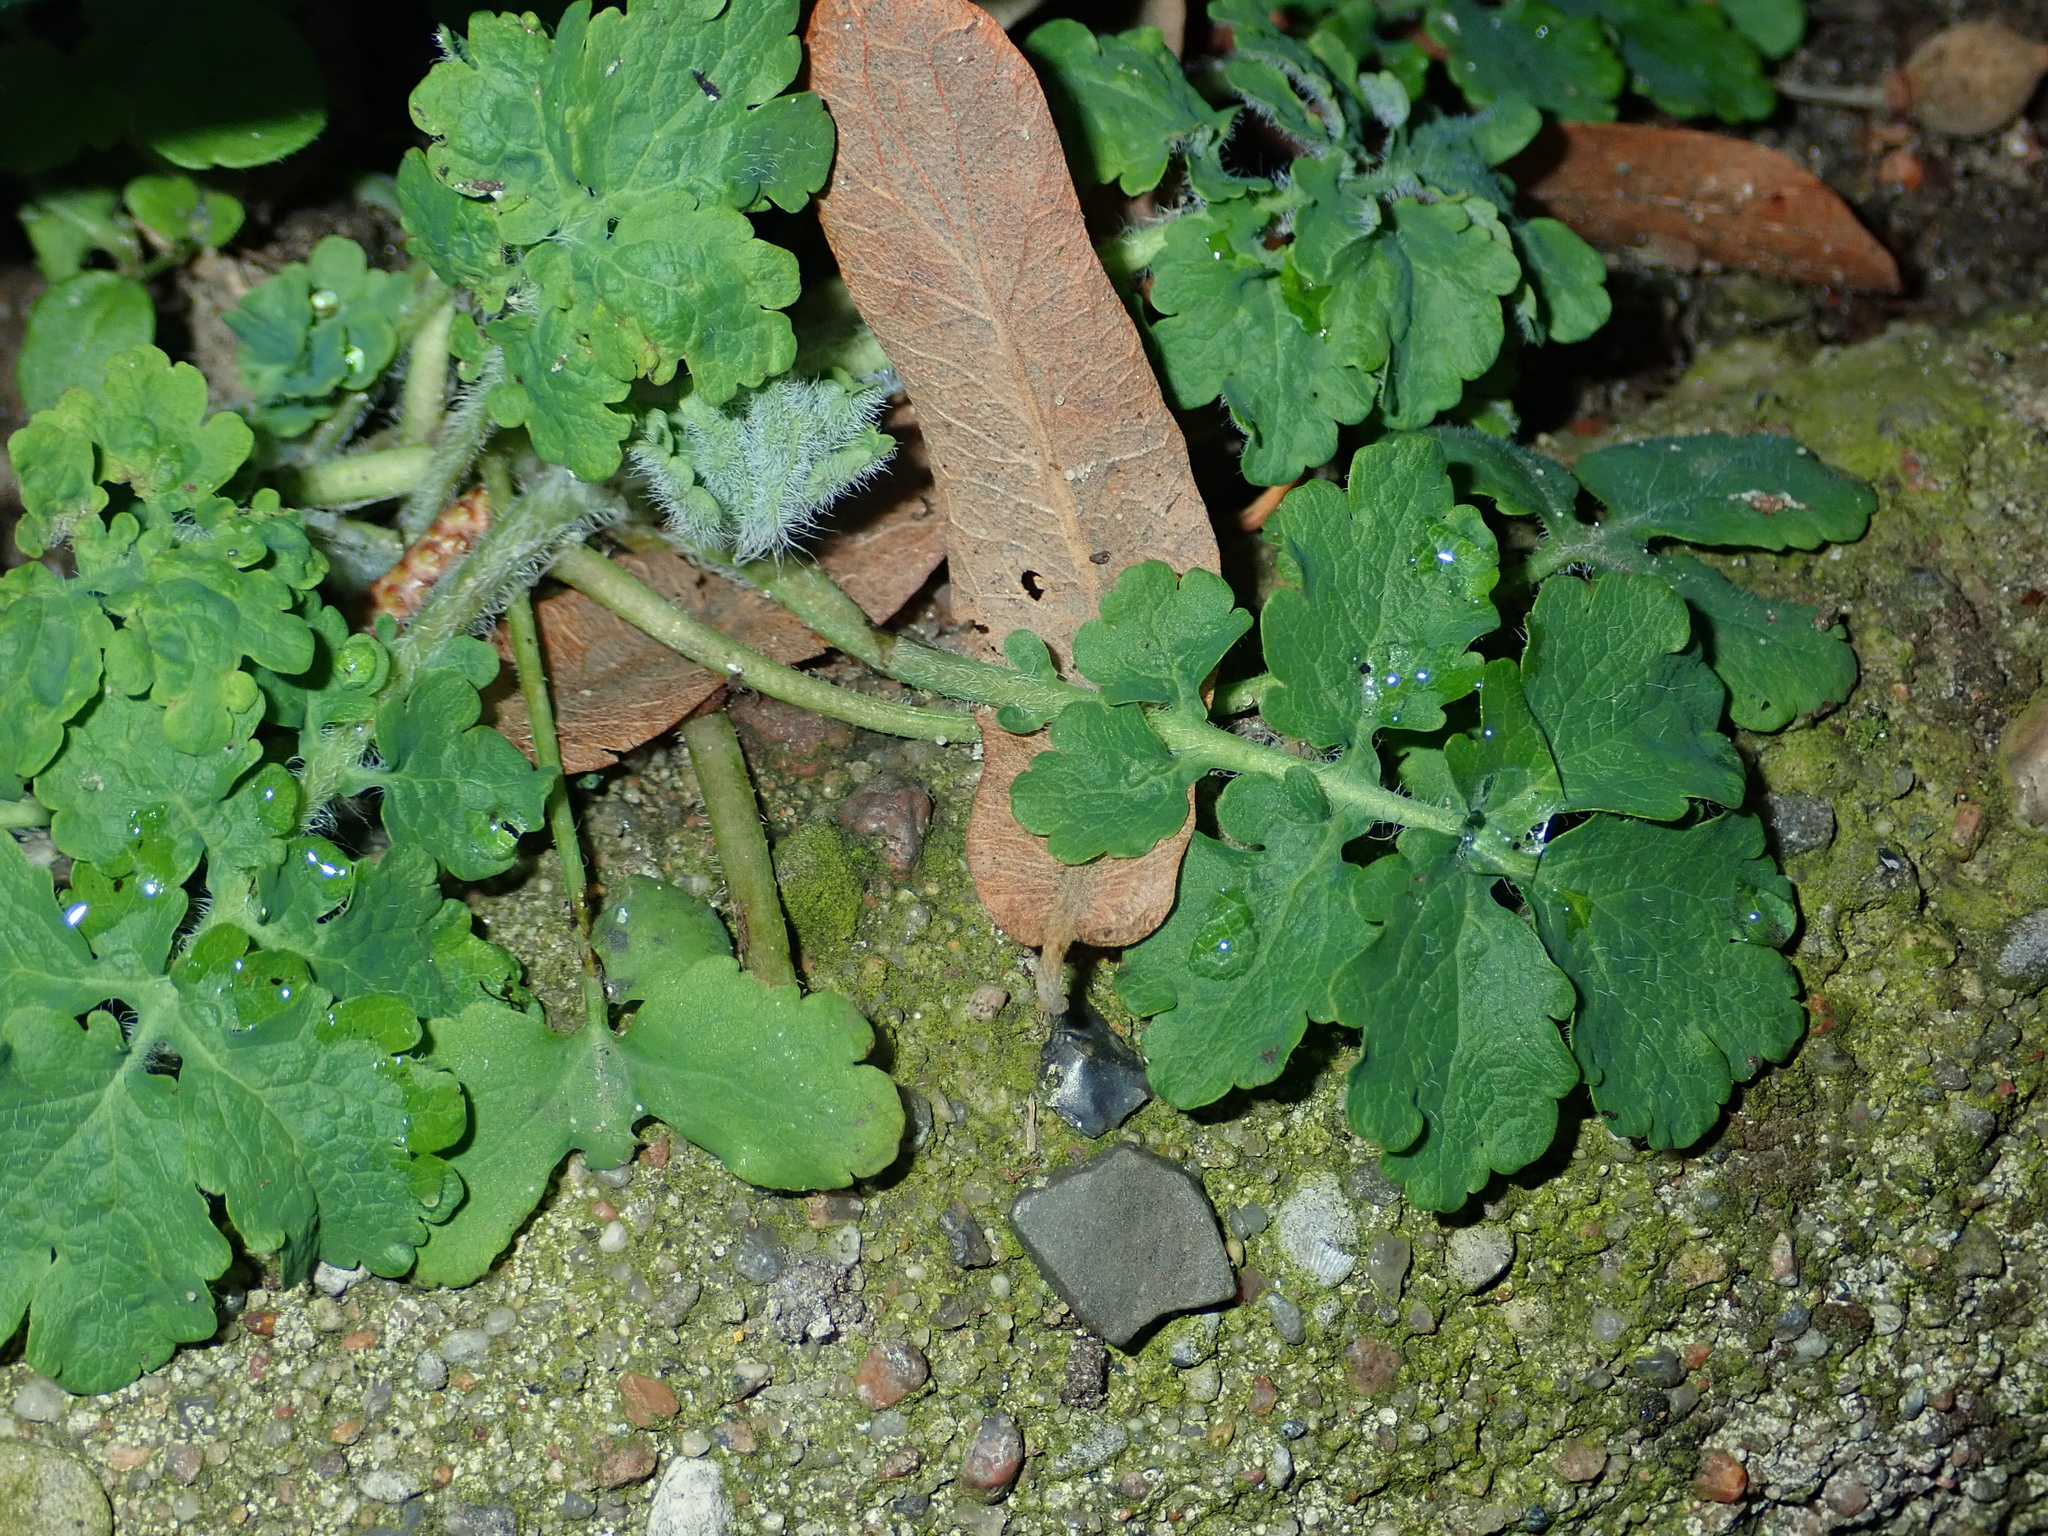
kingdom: Plantae
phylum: Tracheophyta
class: Magnoliopsida
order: Ranunculales
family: Papaveraceae
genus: Chelidonium
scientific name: Chelidonium majus
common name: Greater celandine
